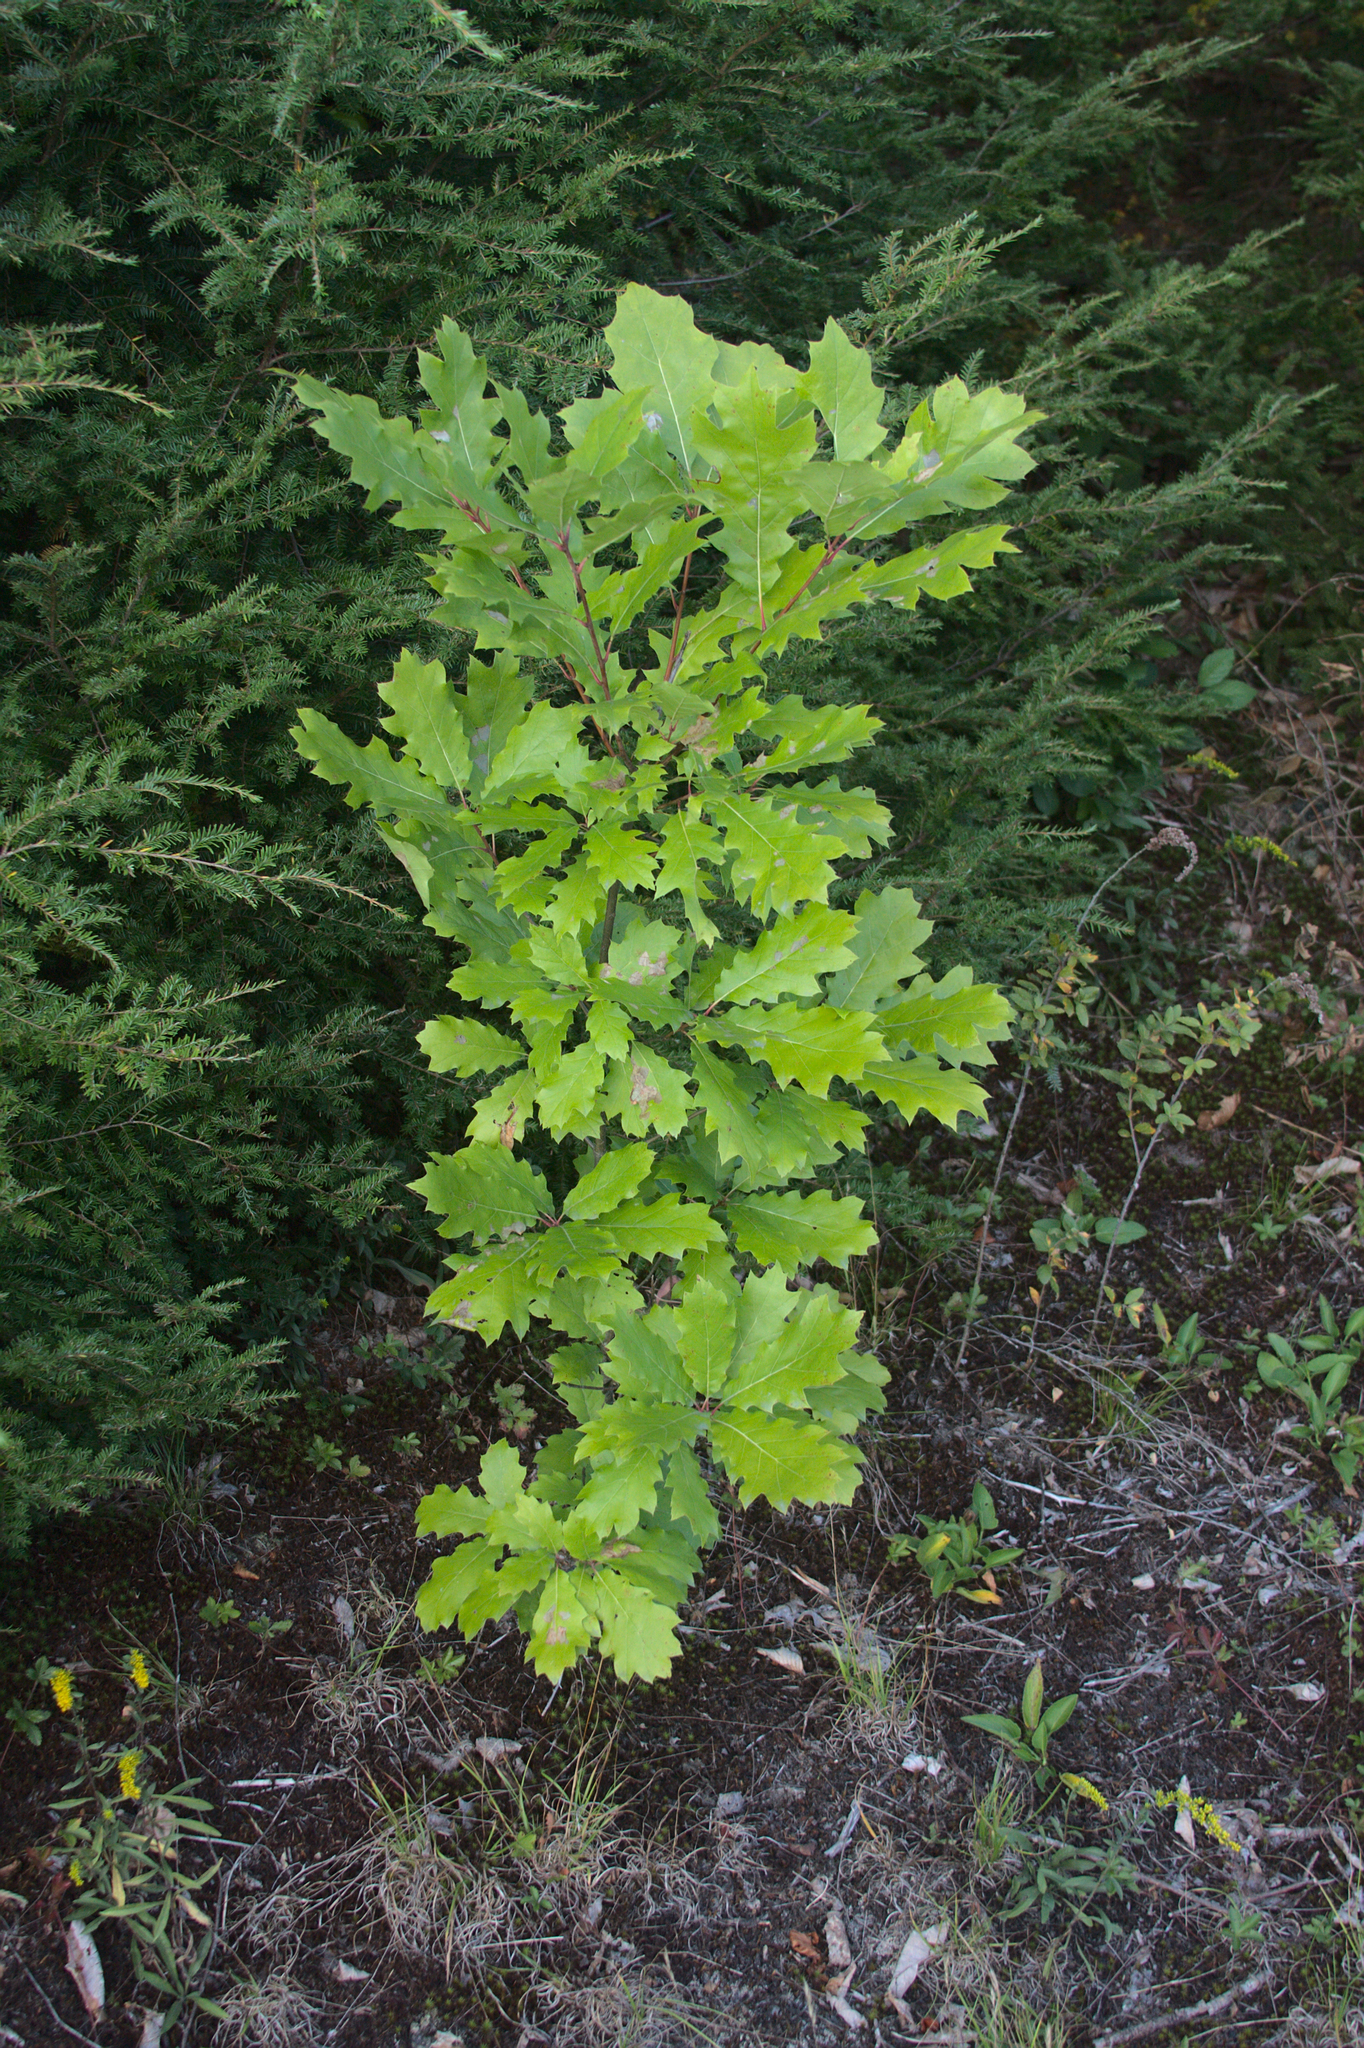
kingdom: Plantae
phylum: Tracheophyta
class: Magnoliopsida
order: Fagales
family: Fagaceae
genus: Quercus
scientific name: Quercus rubra
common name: Red oak
